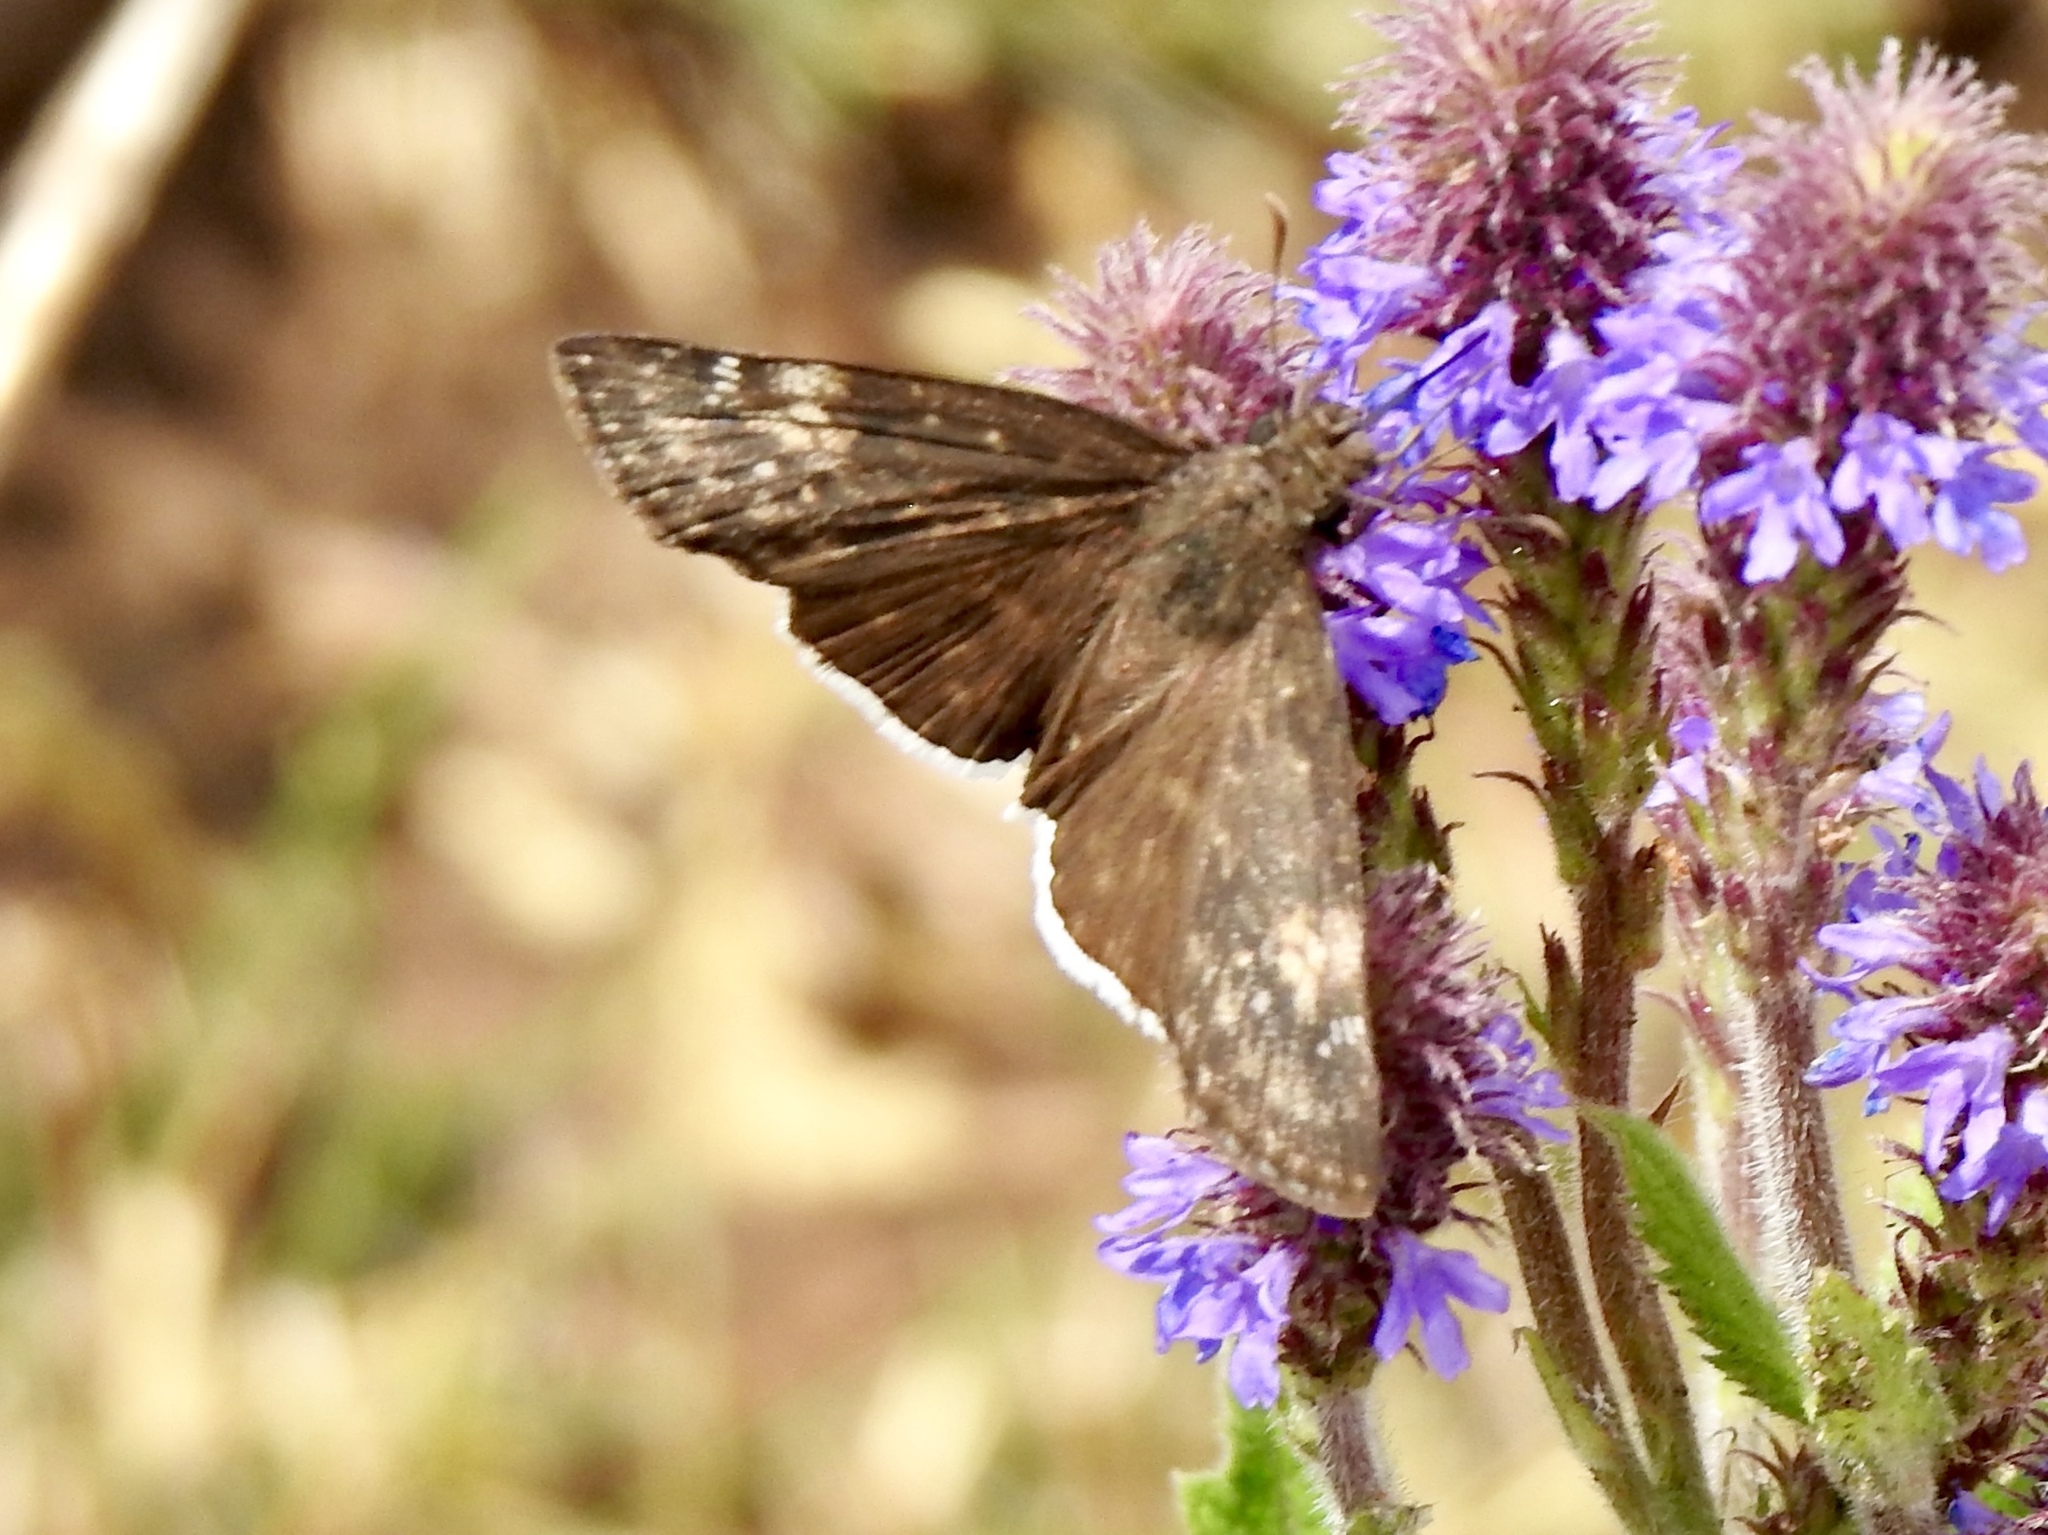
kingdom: Animalia
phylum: Arthropoda
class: Insecta
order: Lepidoptera
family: Hesperiidae
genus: Erynnis
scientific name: Erynnis funeralis
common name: Funereal duskywing
